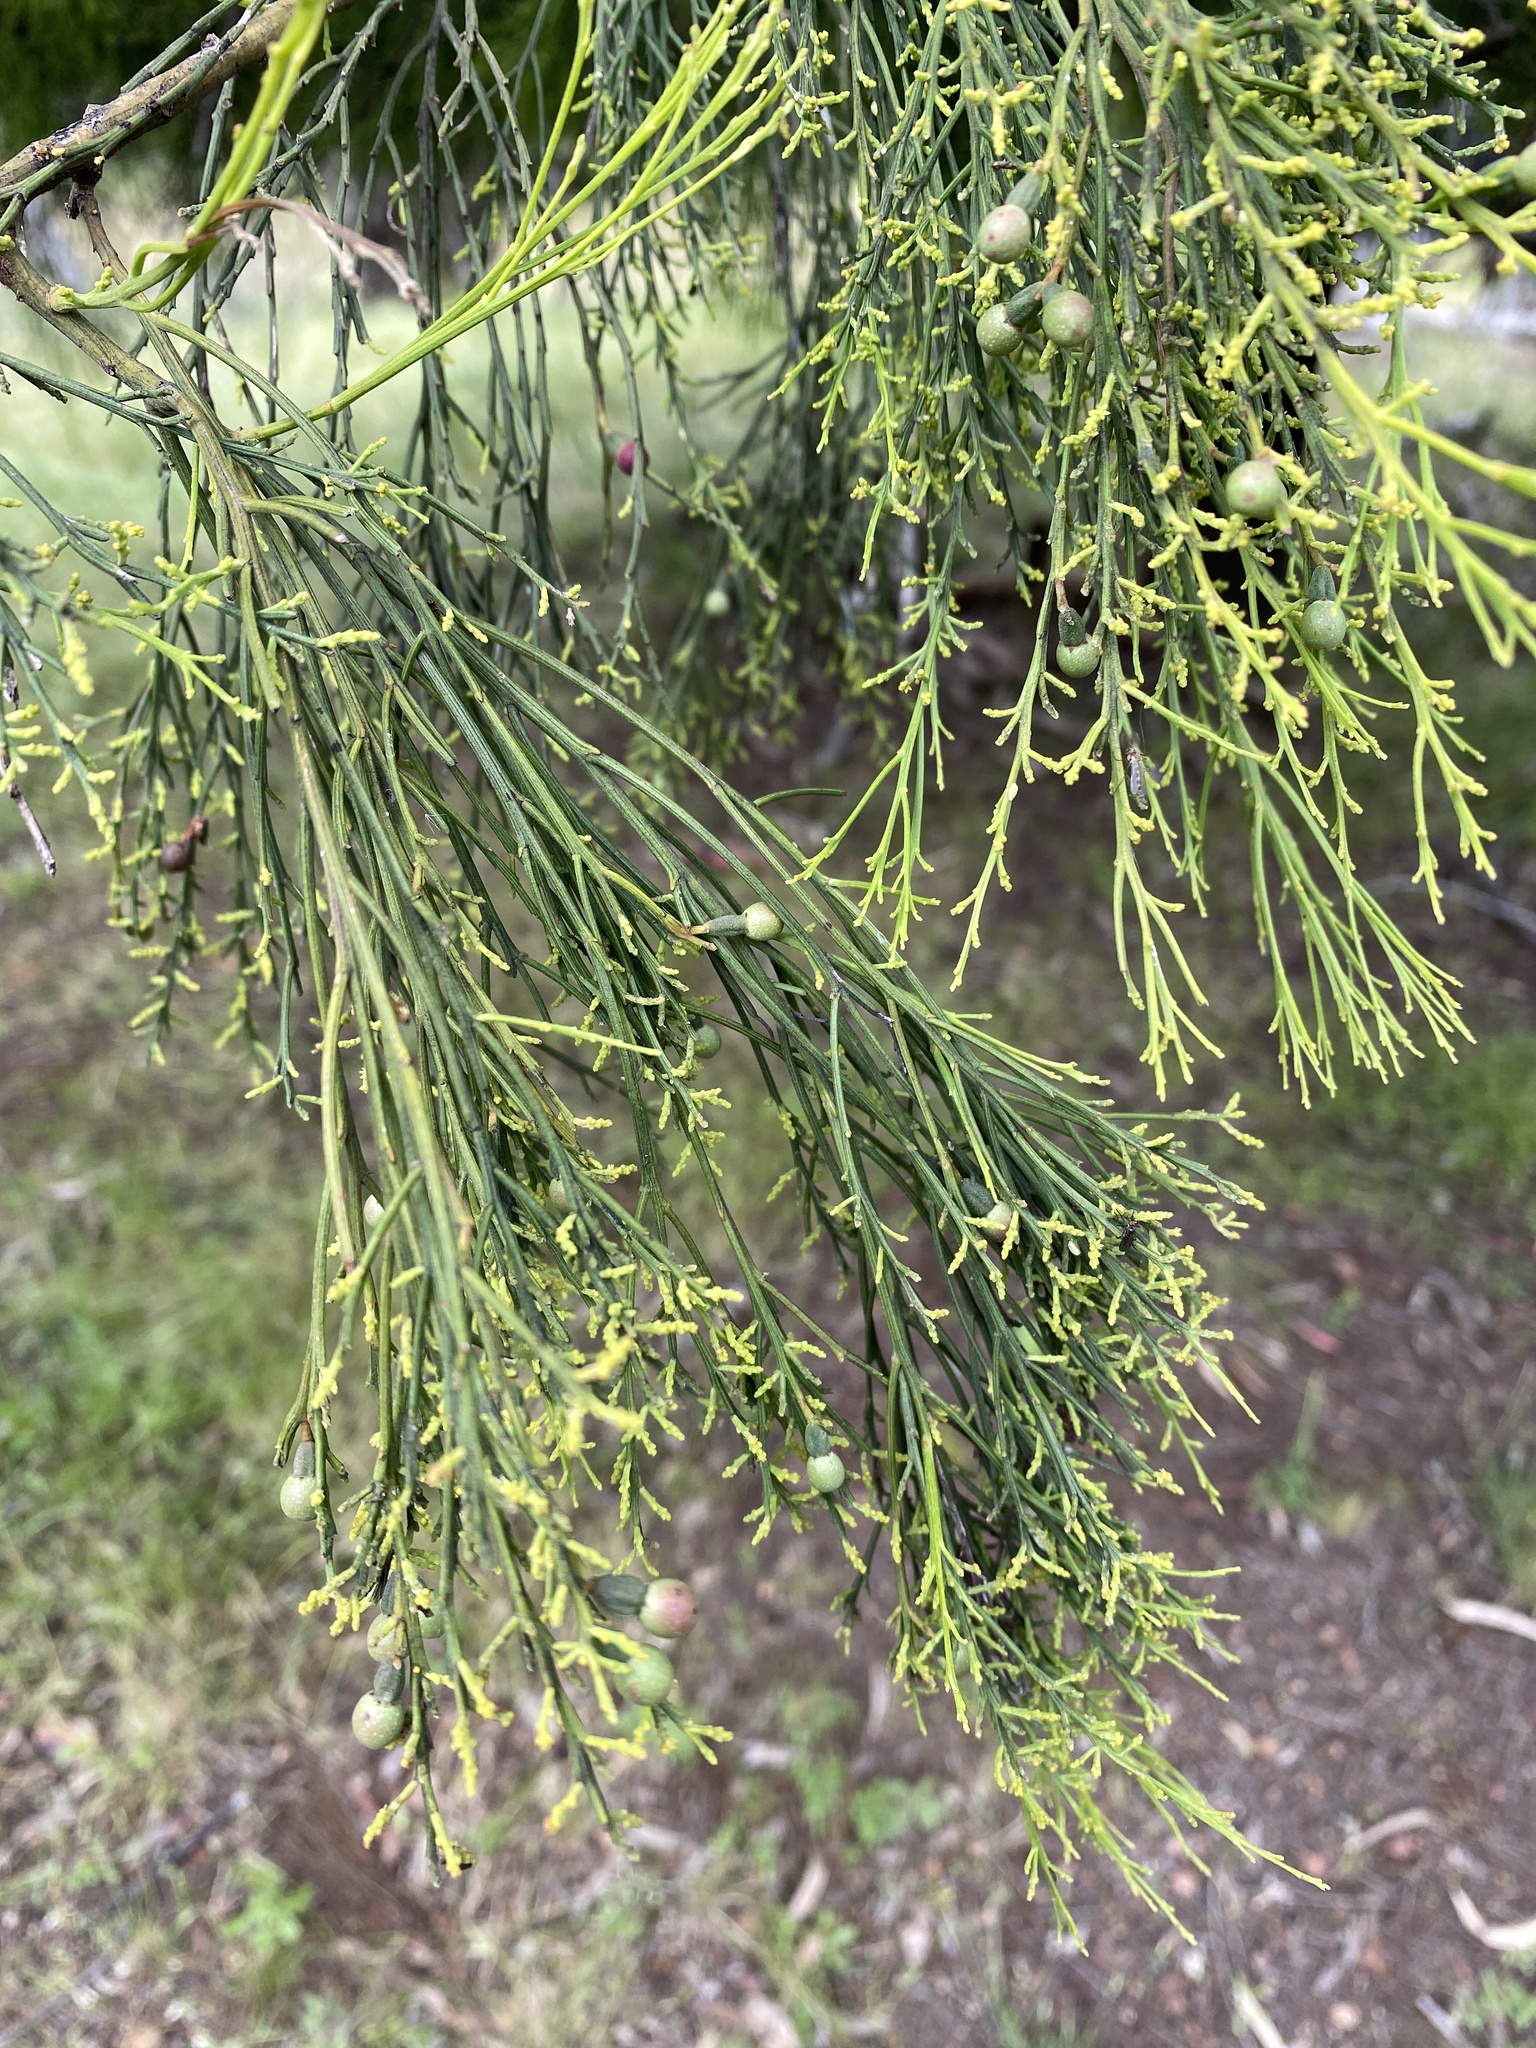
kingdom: Plantae
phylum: Tracheophyta
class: Magnoliopsida
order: Santalales
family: Santalaceae
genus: Exocarpos
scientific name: Exocarpos cupressiformis
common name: Cherry ballart
